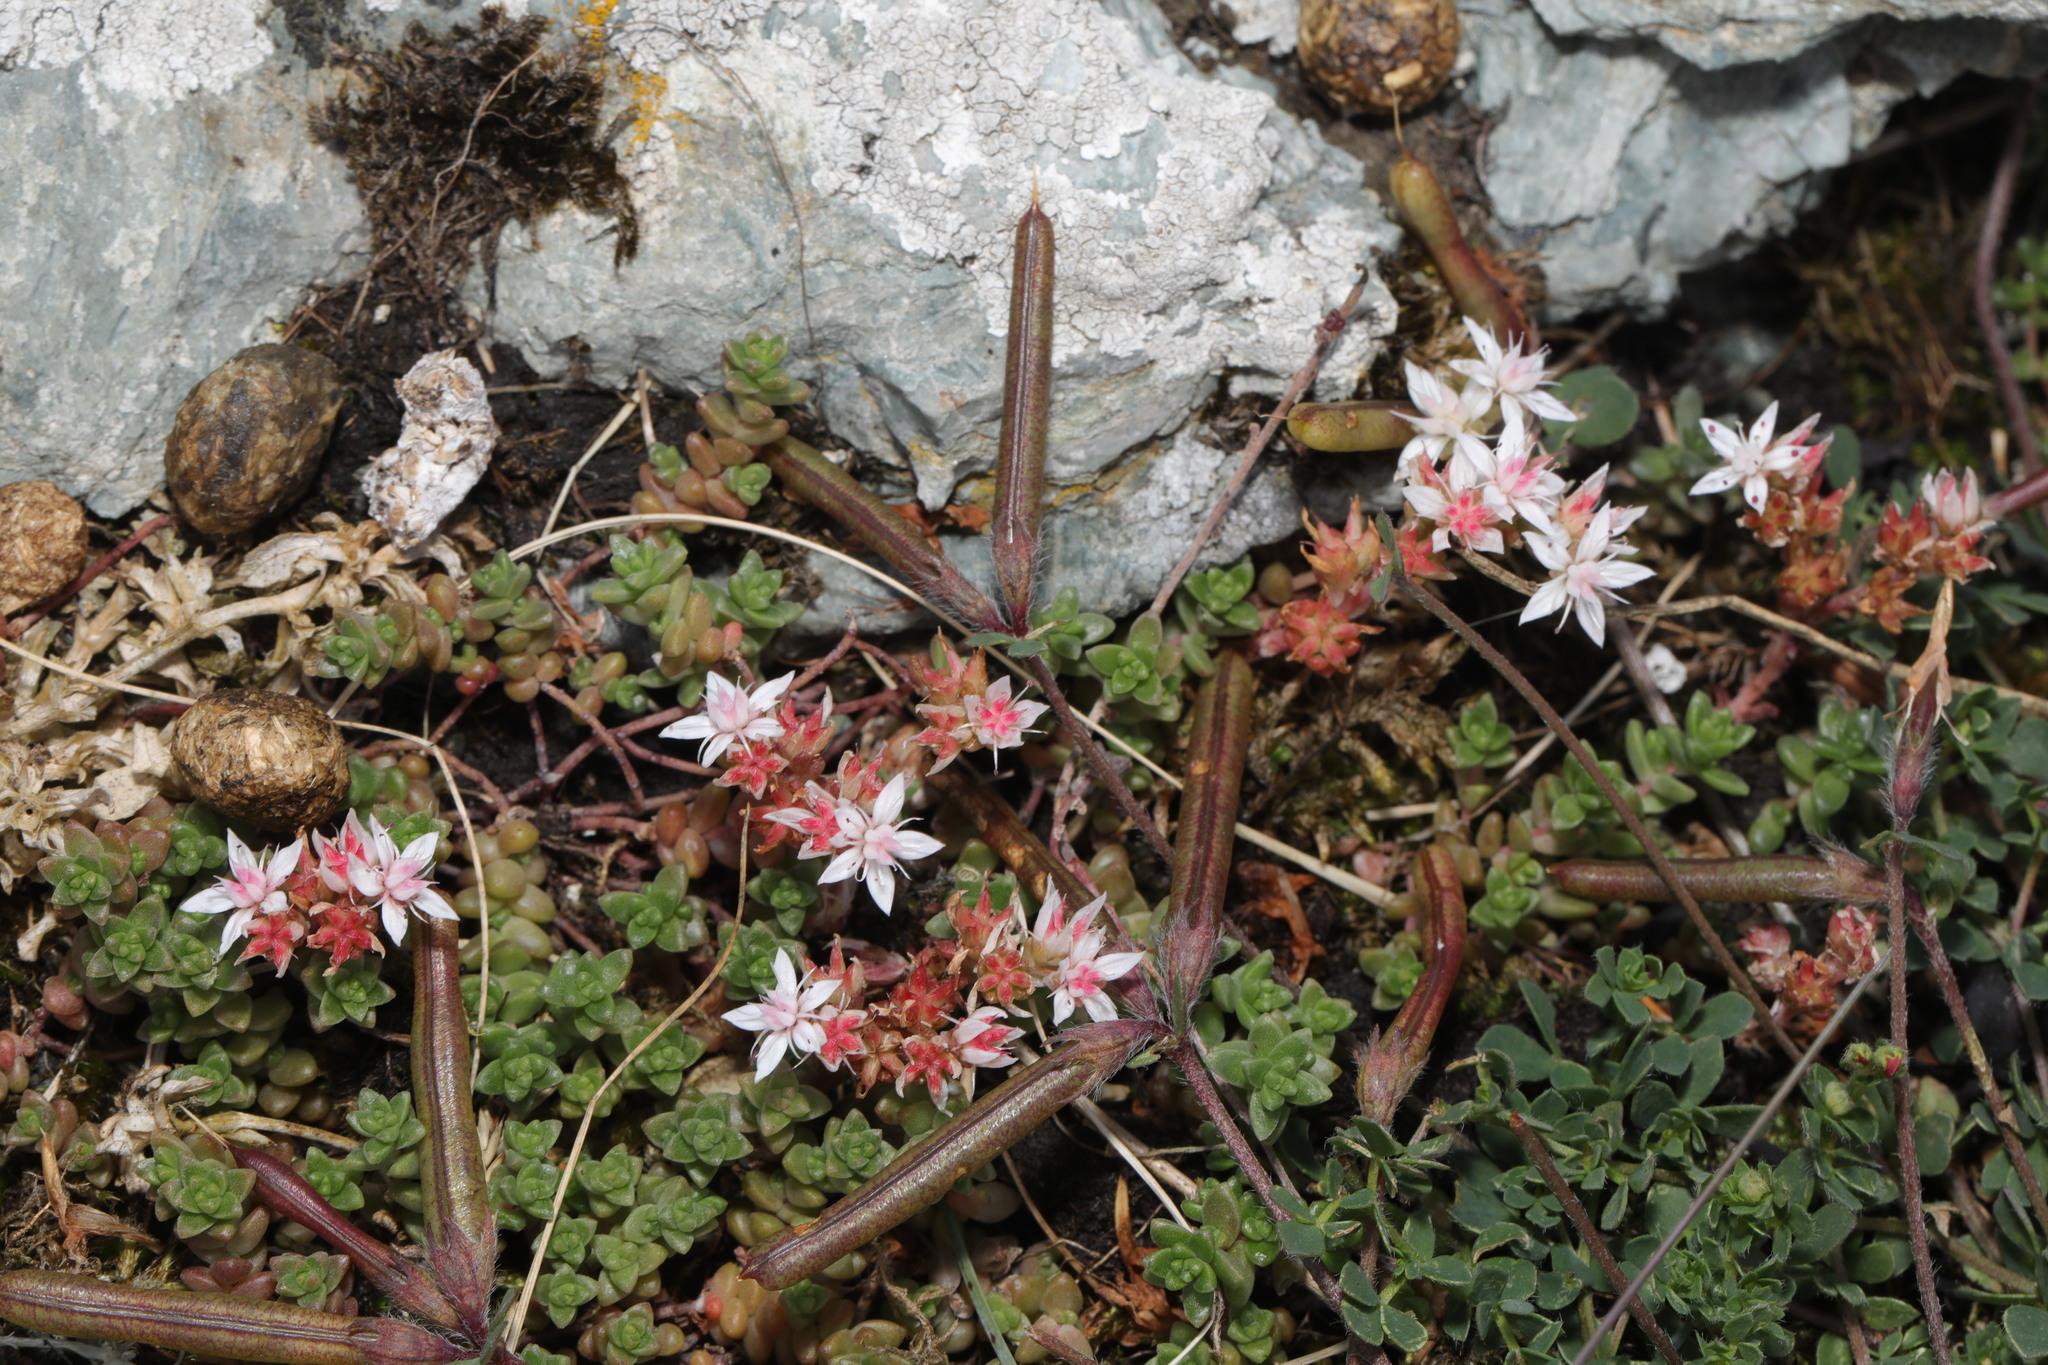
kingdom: Plantae
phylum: Tracheophyta
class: Magnoliopsida
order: Saxifragales
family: Crassulaceae
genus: Sedum
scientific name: Sedum anglicum
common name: English stonecrop
